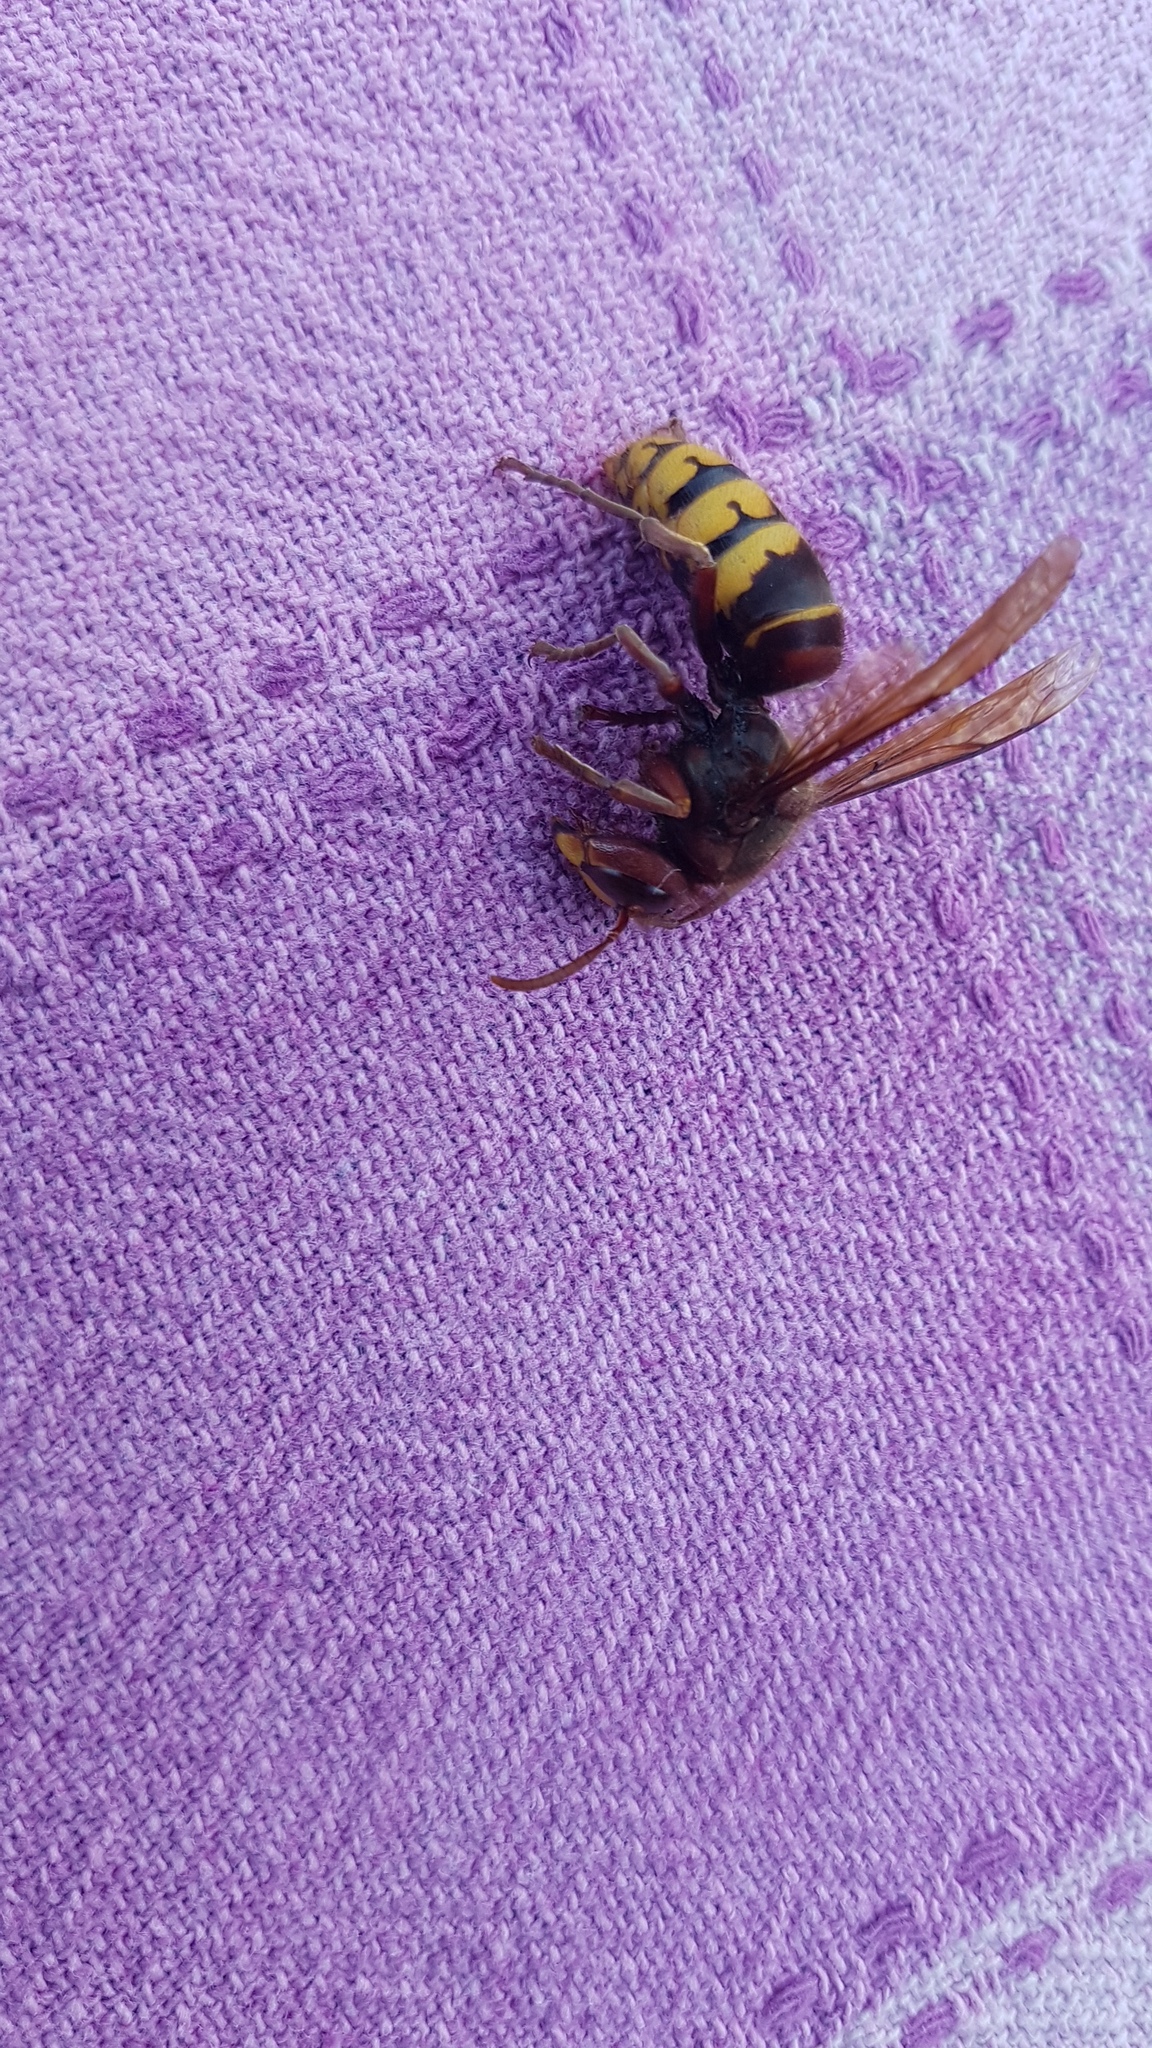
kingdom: Animalia
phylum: Arthropoda
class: Insecta
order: Hymenoptera
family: Vespidae
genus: Vespa
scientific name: Vespa crabro
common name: Hornet
